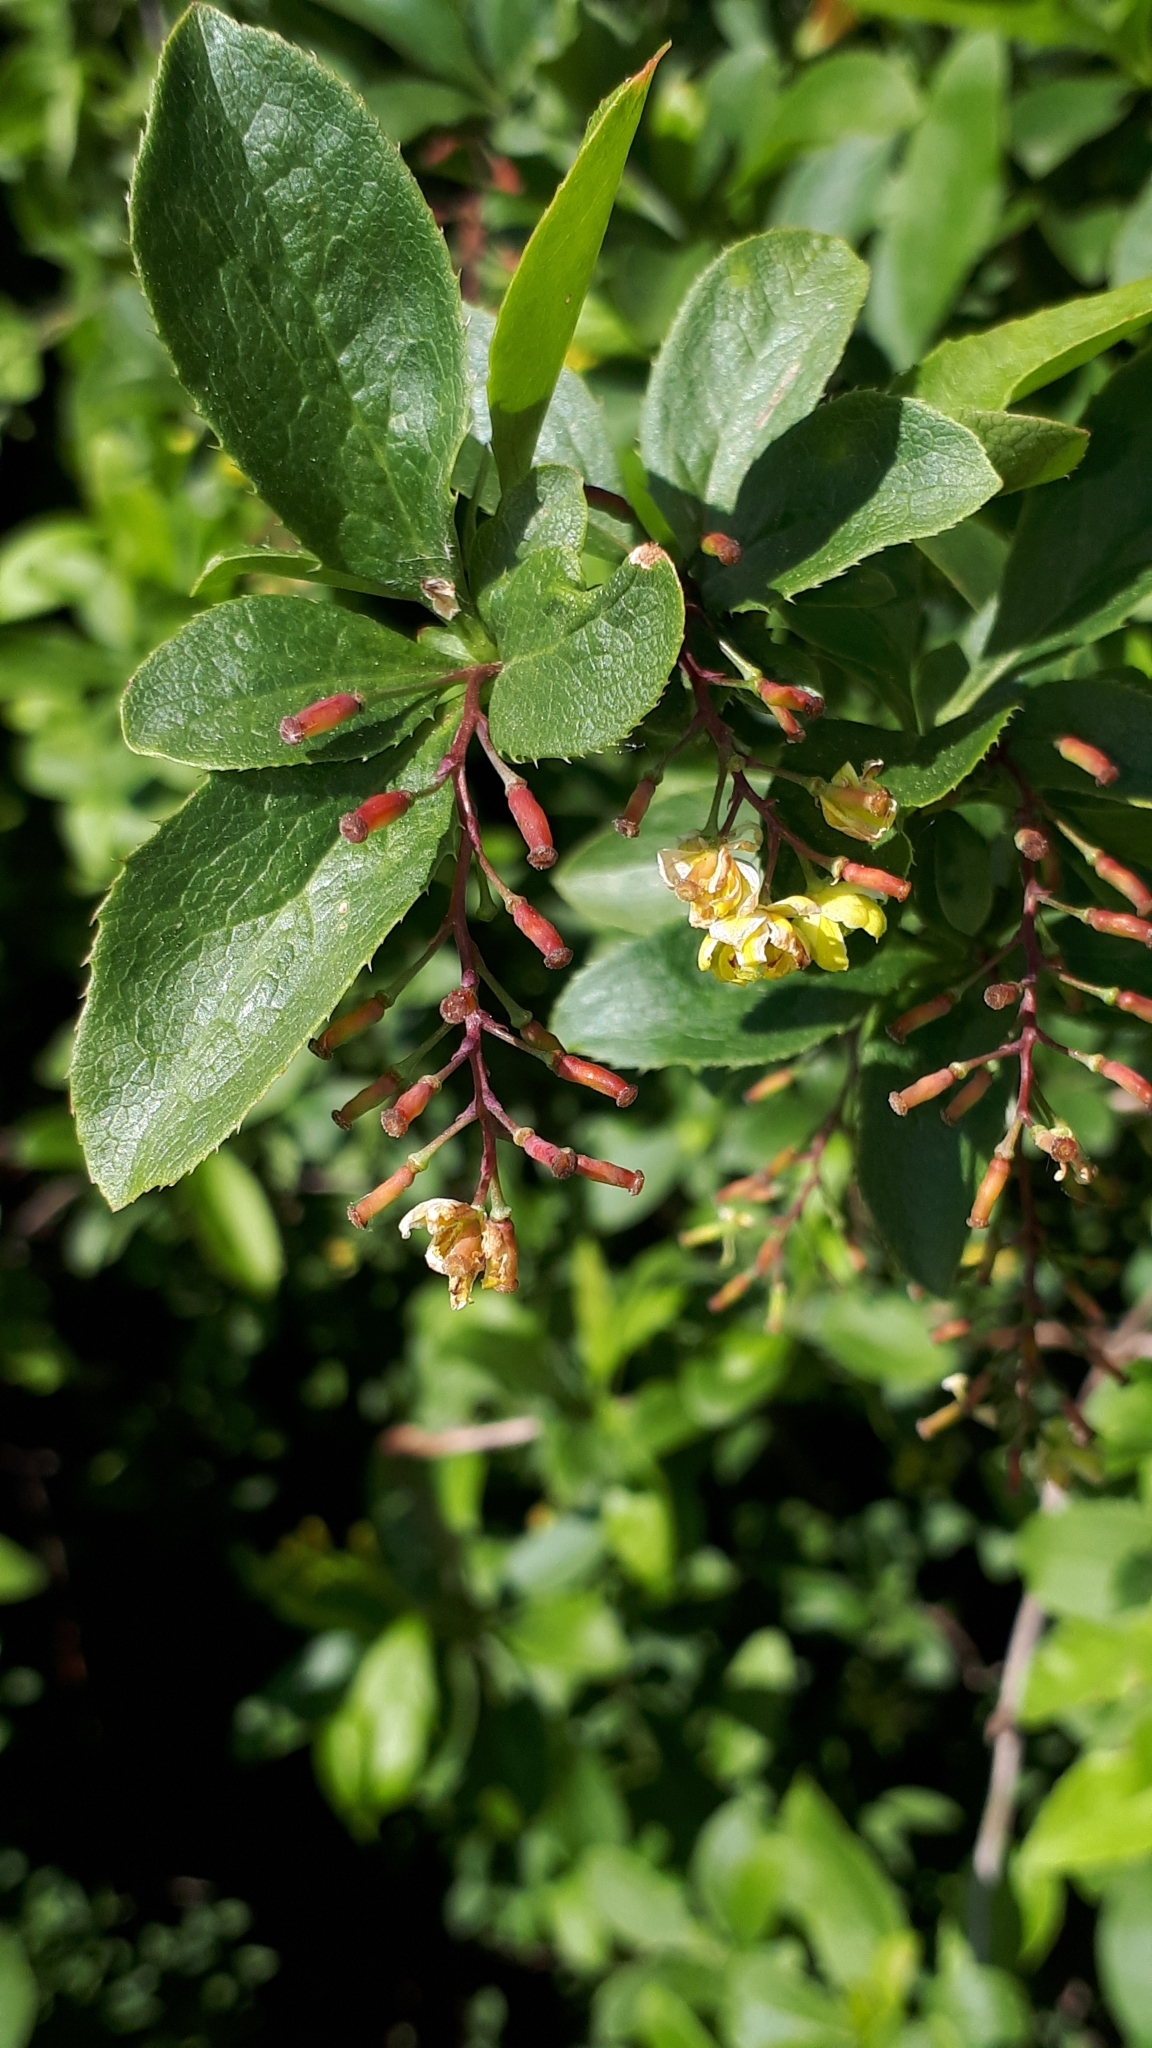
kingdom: Plantae
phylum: Tracheophyta
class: Magnoliopsida
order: Ranunculales
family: Berberidaceae
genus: Berberis
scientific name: Berberis vulgaris
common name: Barberry
